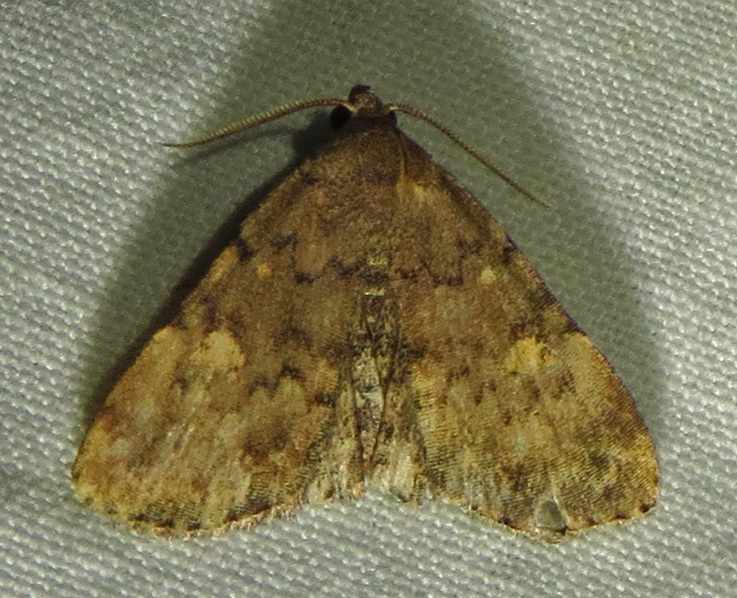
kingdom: Animalia
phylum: Arthropoda
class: Insecta
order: Lepidoptera
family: Erebidae
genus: Idia
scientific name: Idia aemula
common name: Common idia moth
